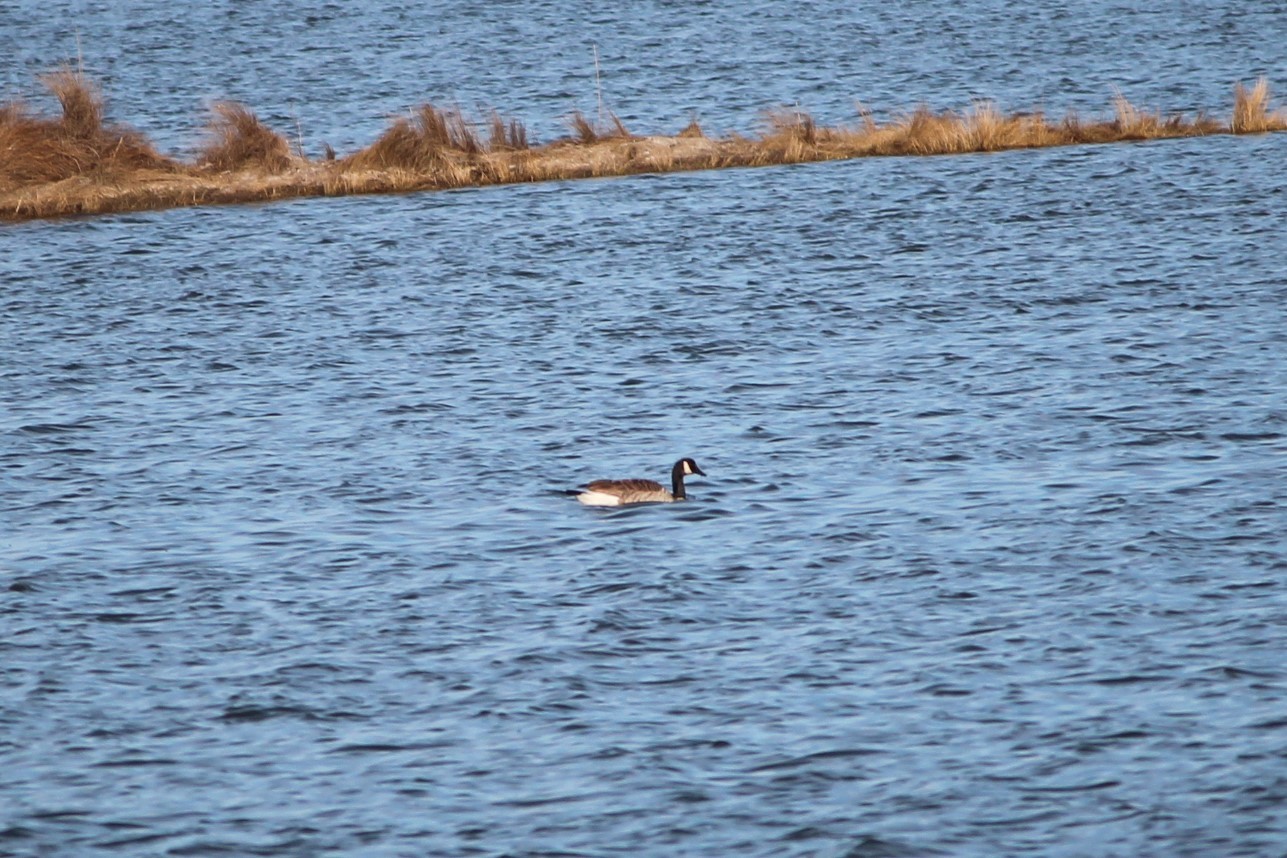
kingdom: Animalia
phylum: Chordata
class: Aves
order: Anseriformes
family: Anatidae
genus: Branta
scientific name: Branta canadensis
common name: Canada goose
